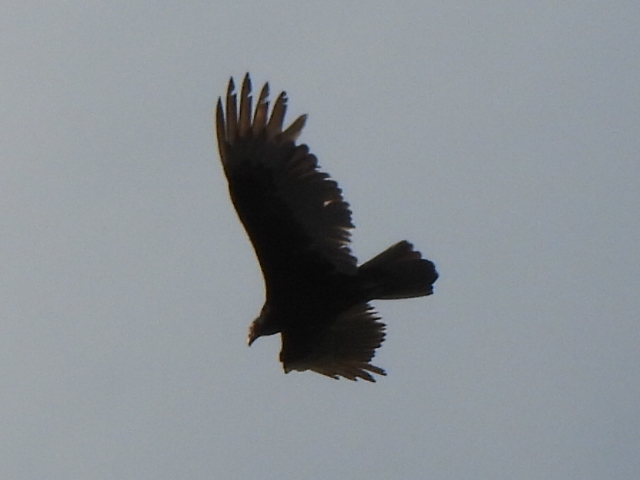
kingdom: Animalia
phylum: Chordata
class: Aves
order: Accipitriformes
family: Cathartidae
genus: Cathartes
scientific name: Cathartes aura
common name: Turkey vulture
